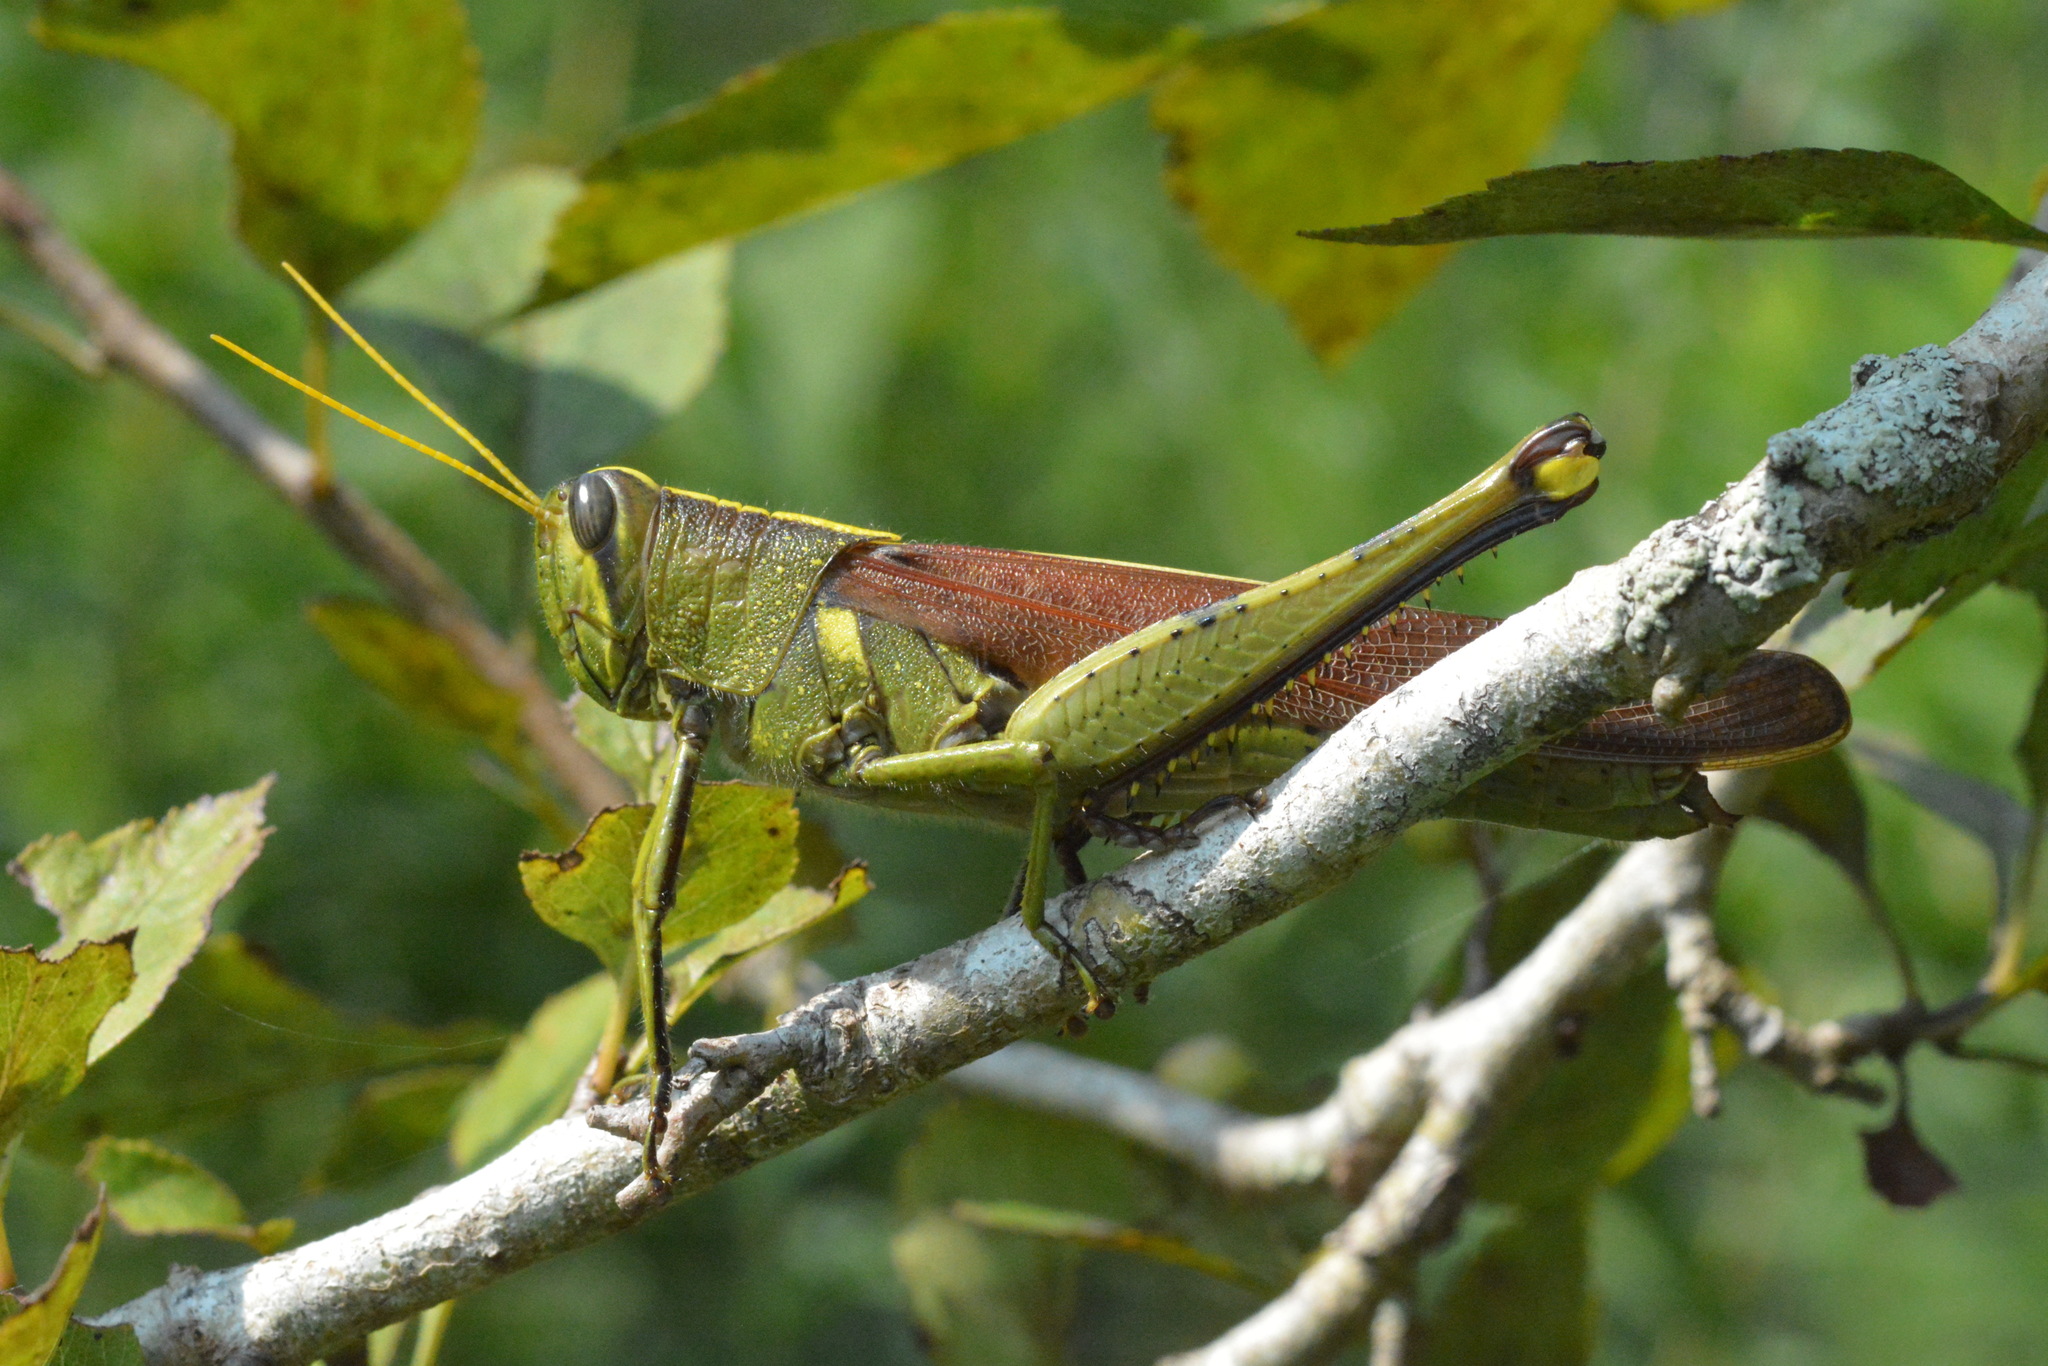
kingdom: Animalia
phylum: Arthropoda
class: Insecta
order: Orthoptera
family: Acrididae
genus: Schistocerca
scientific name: Schistocerca obscura
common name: Obscure bird grasshopper
